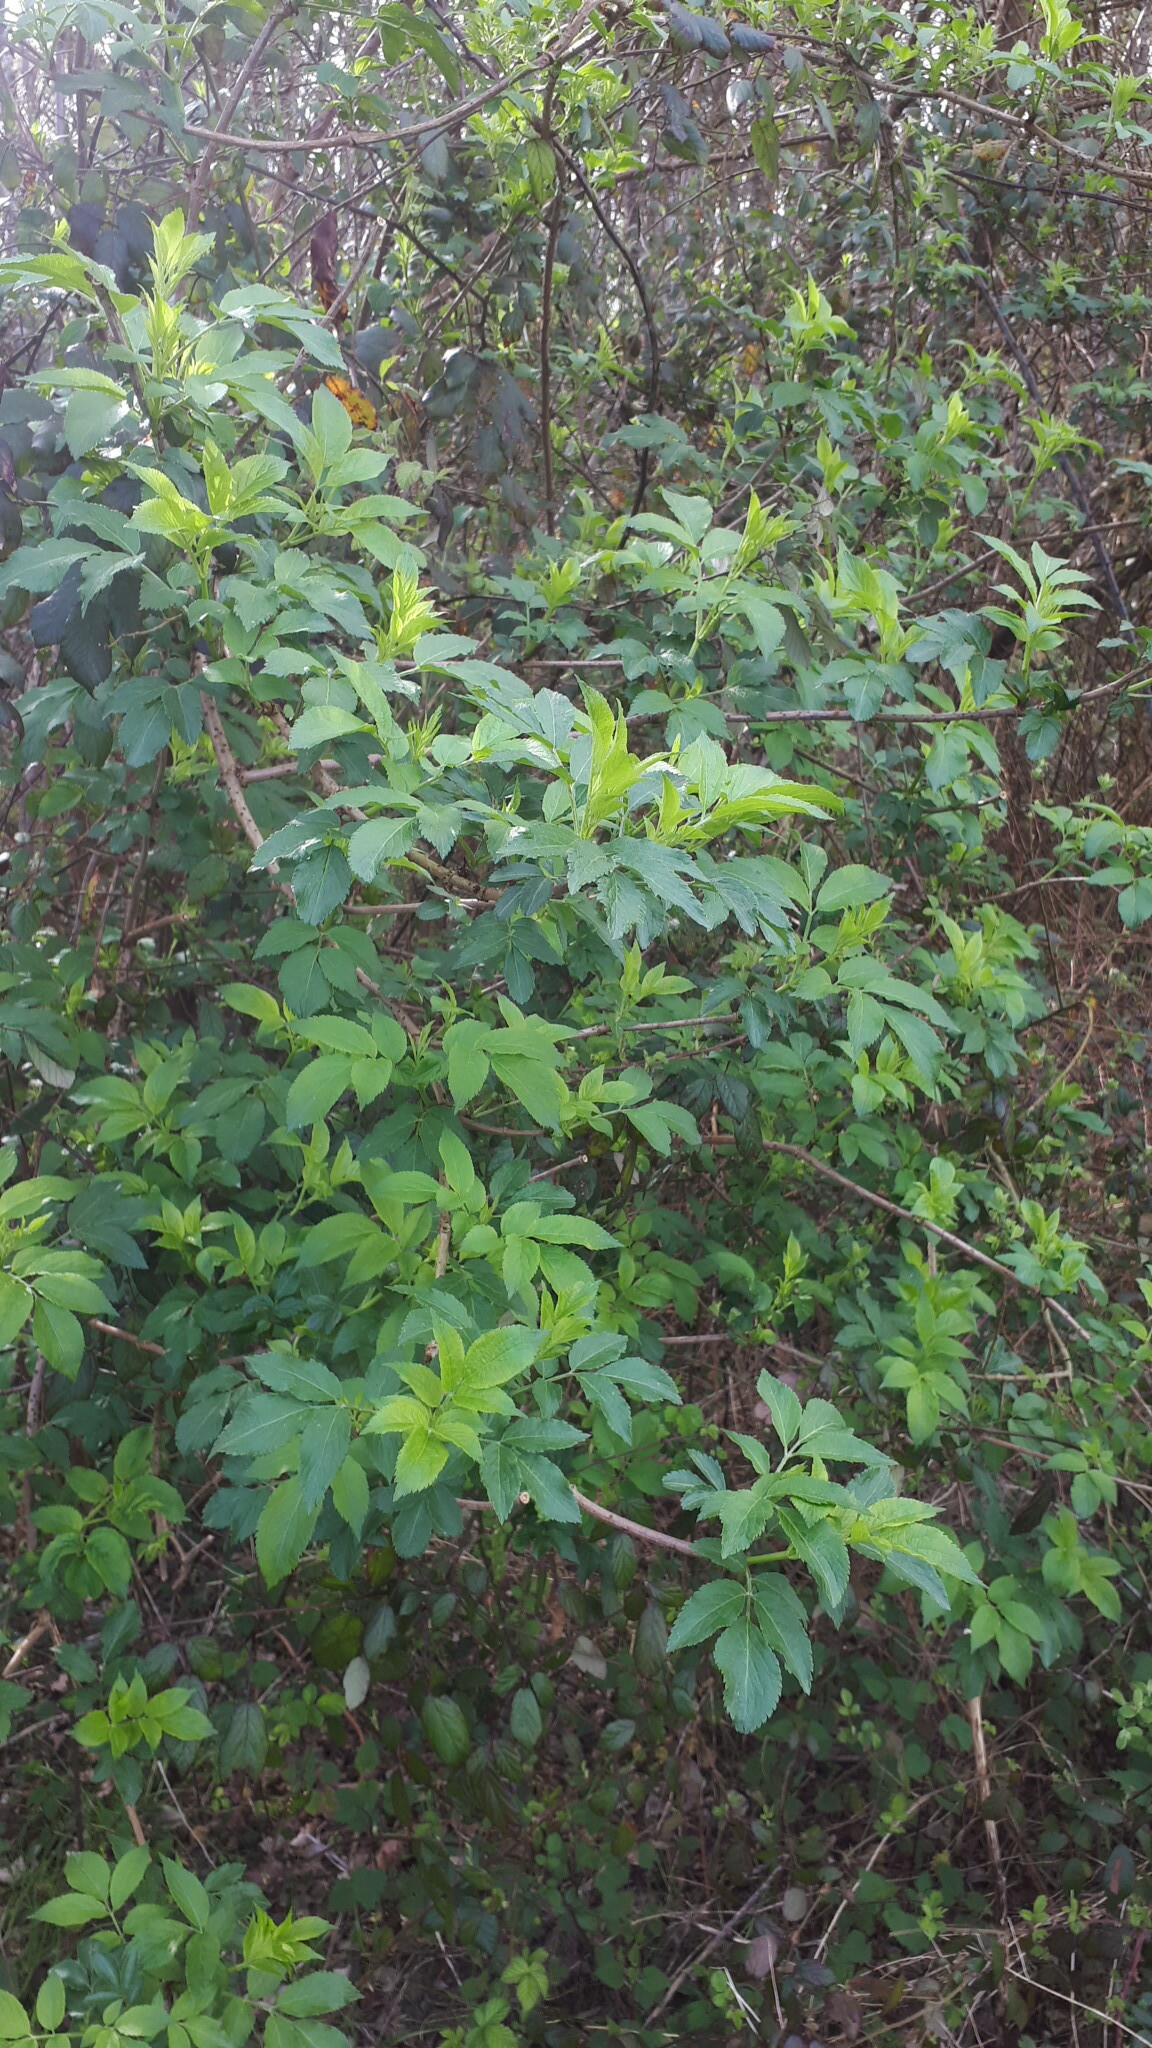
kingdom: Plantae
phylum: Tracheophyta
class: Magnoliopsida
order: Dipsacales
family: Viburnaceae
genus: Sambucus
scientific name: Sambucus nigra
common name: Elder
